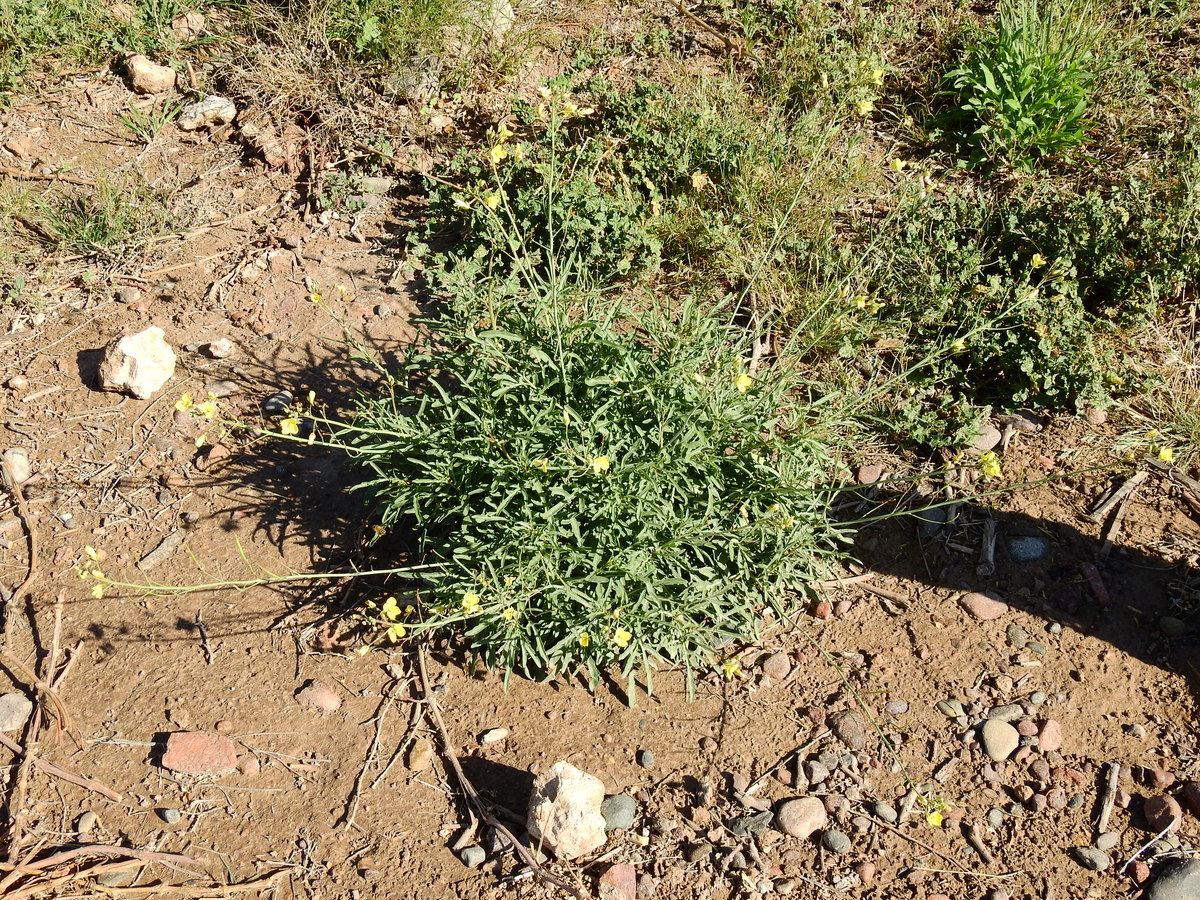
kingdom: Plantae
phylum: Tracheophyta
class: Magnoliopsida
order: Brassicales
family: Brassicaceae
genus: Diplotaxis
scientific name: Diplotaxis tenuifolia
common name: Perennial wall-rocket
